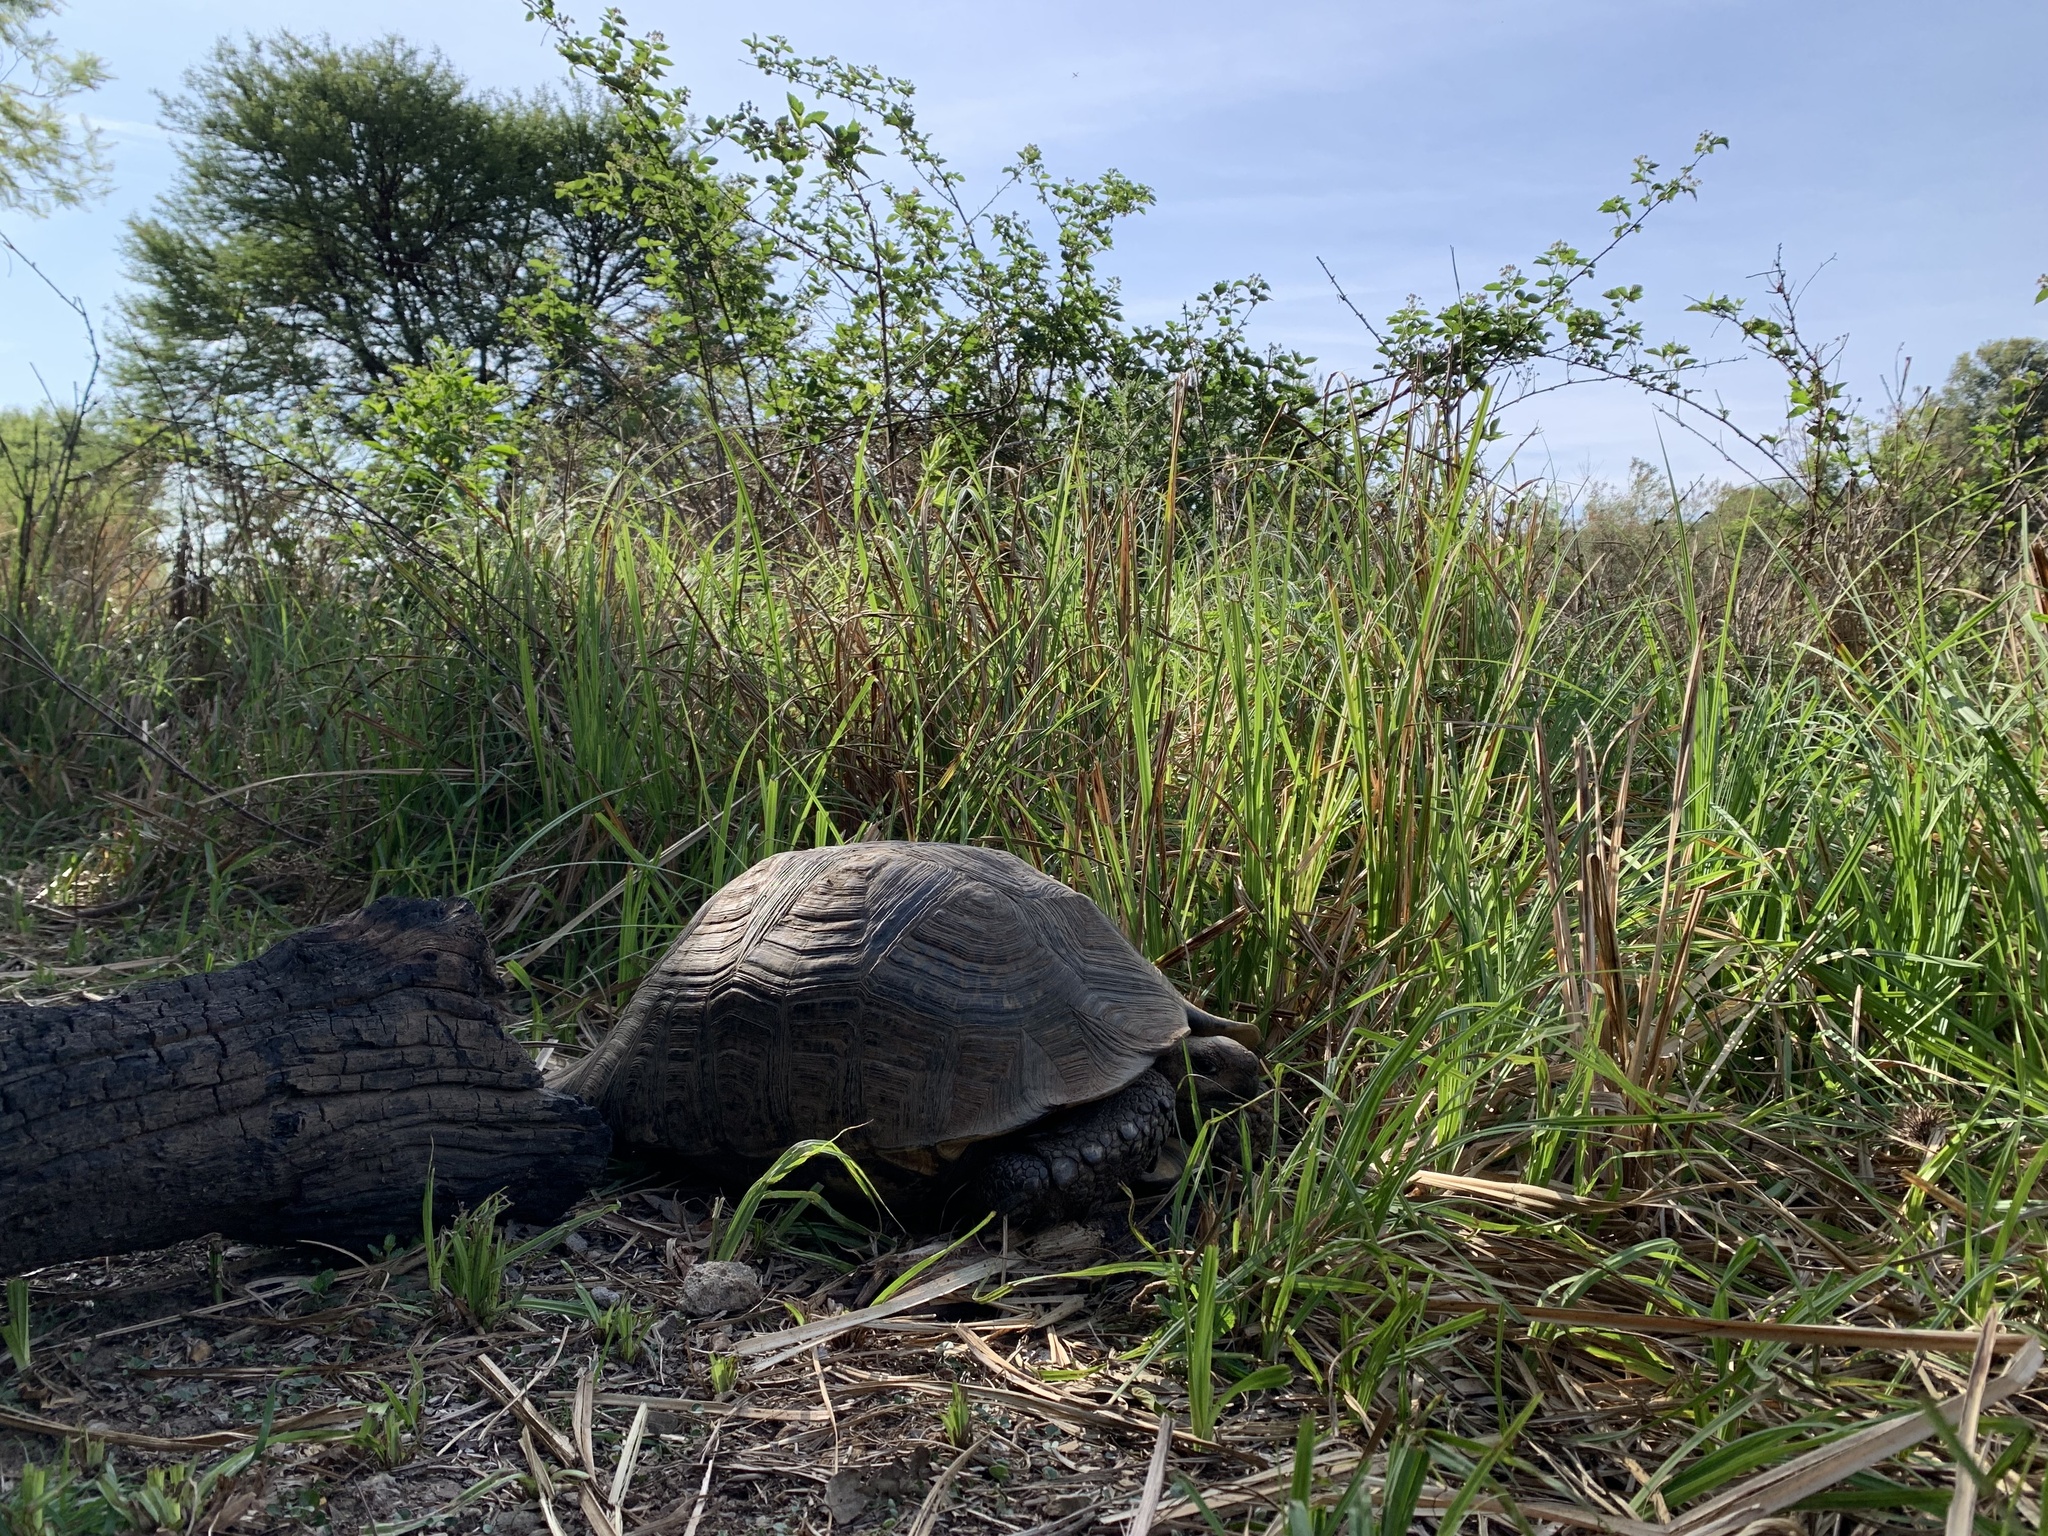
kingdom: Animalia
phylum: Chordata
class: Testudines
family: Testudinidae
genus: Stigmochelys
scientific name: Stigmochelys pardalis
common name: Leopard tortoise
